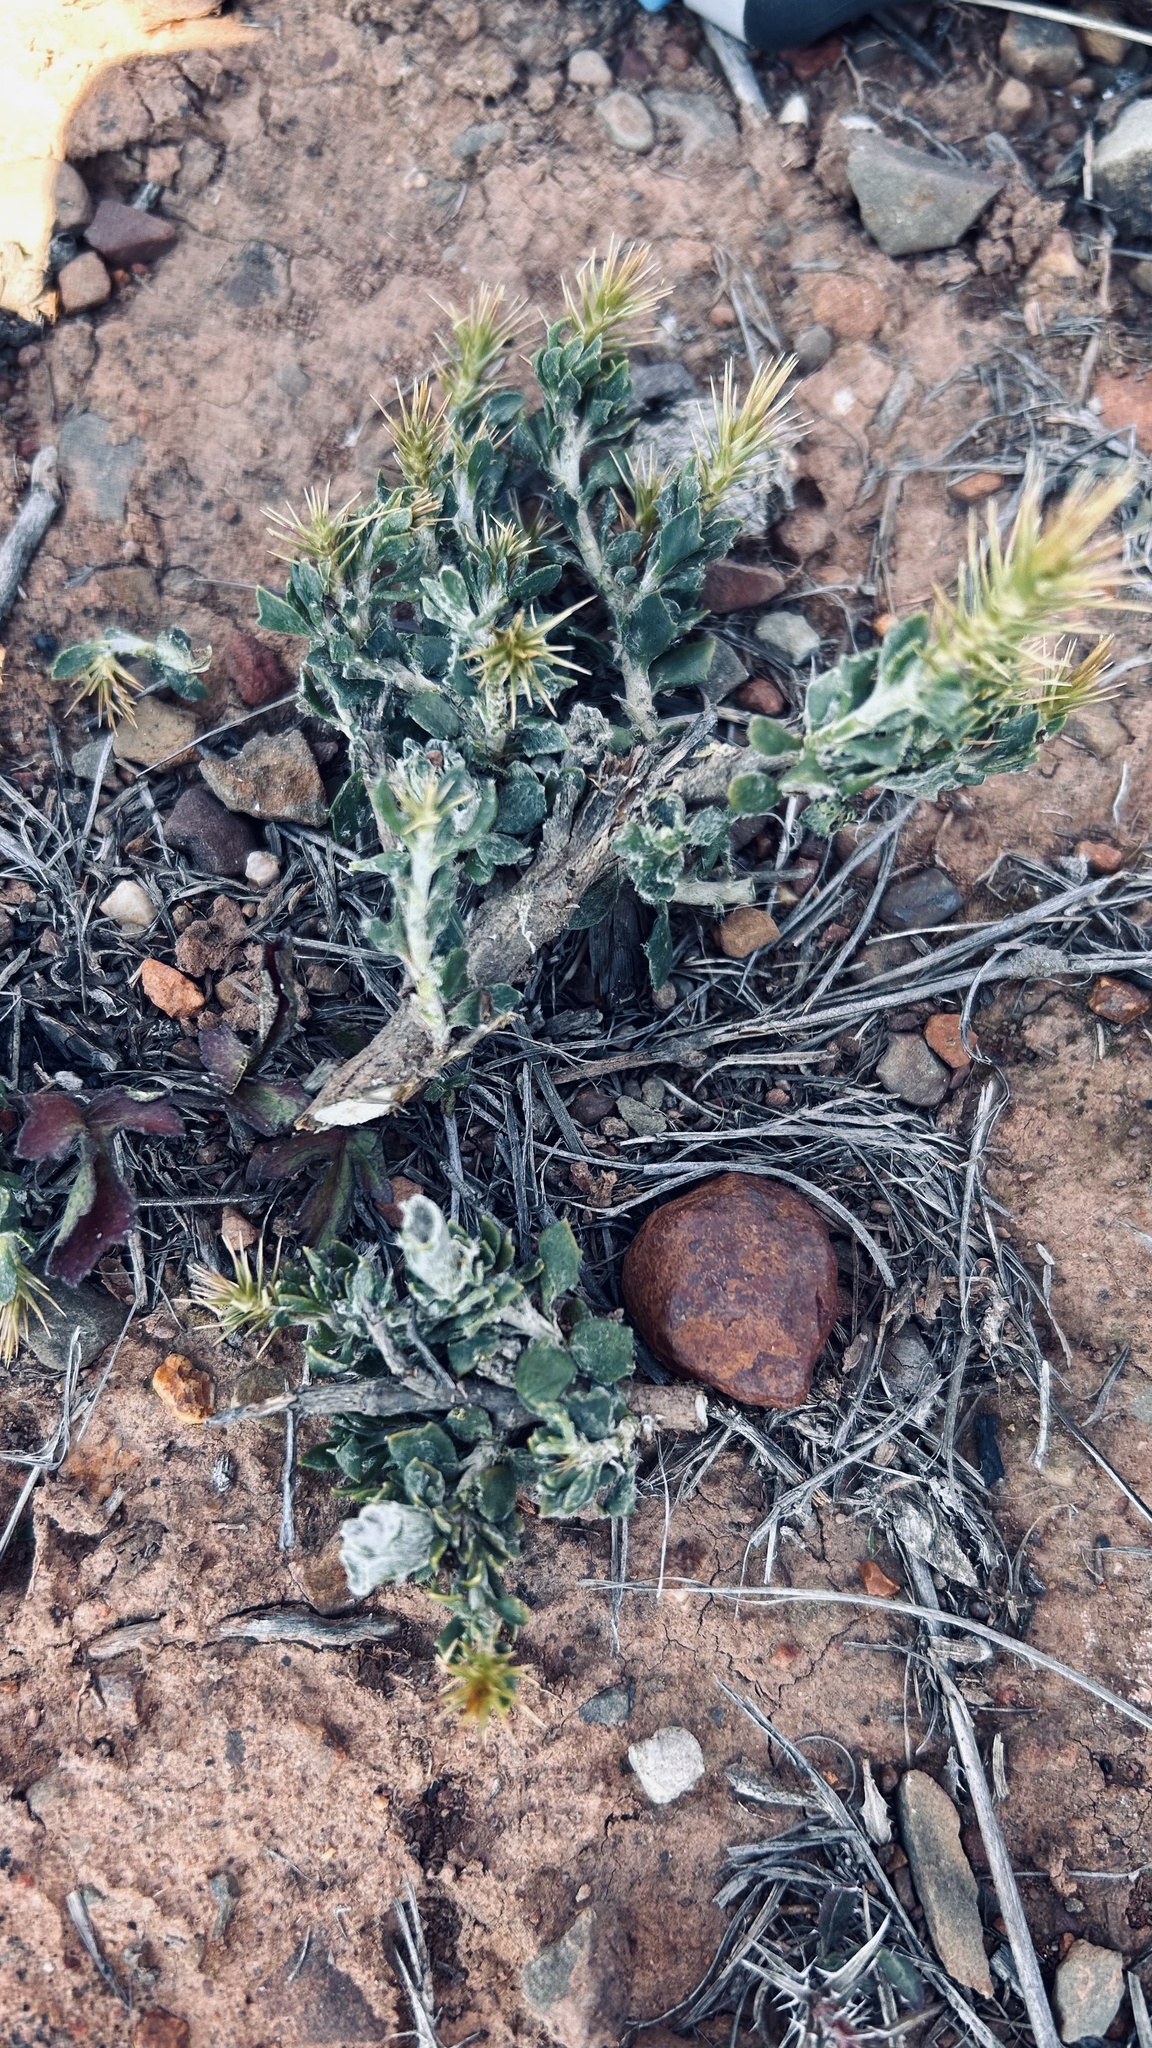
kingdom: Plantae
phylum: Tracheophyta
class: Magnoliopsida
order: Asterales
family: Asteraceae
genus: Macledium
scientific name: Macledium spinosum
